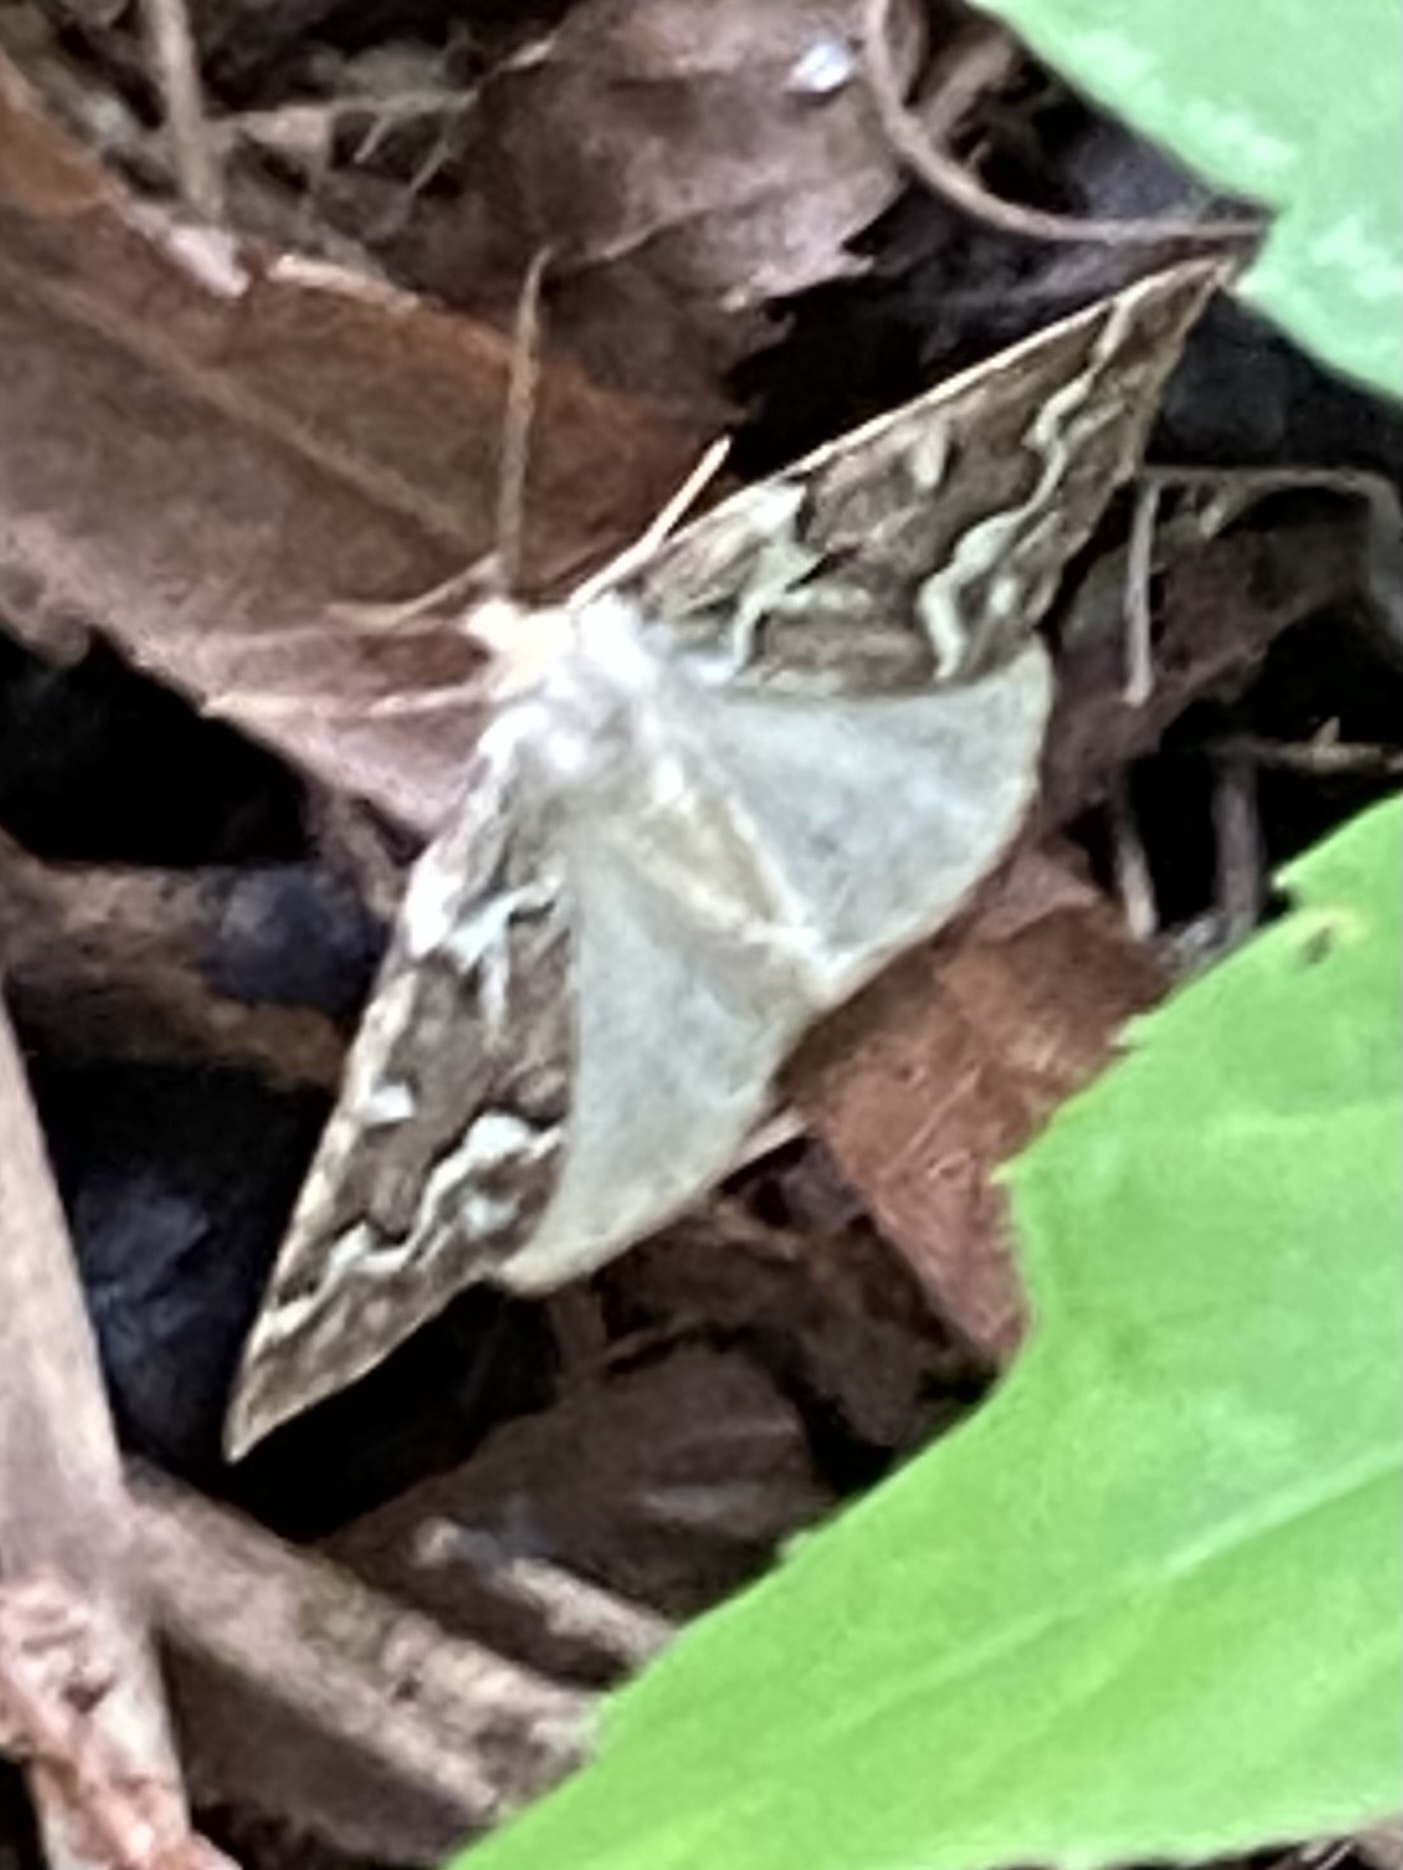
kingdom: Animalia
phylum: Arthropoda
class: Insecta
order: Lepidoptera
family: Geometridae
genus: Caripeta
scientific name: Caripeta divisata
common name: Gray spruce looper
